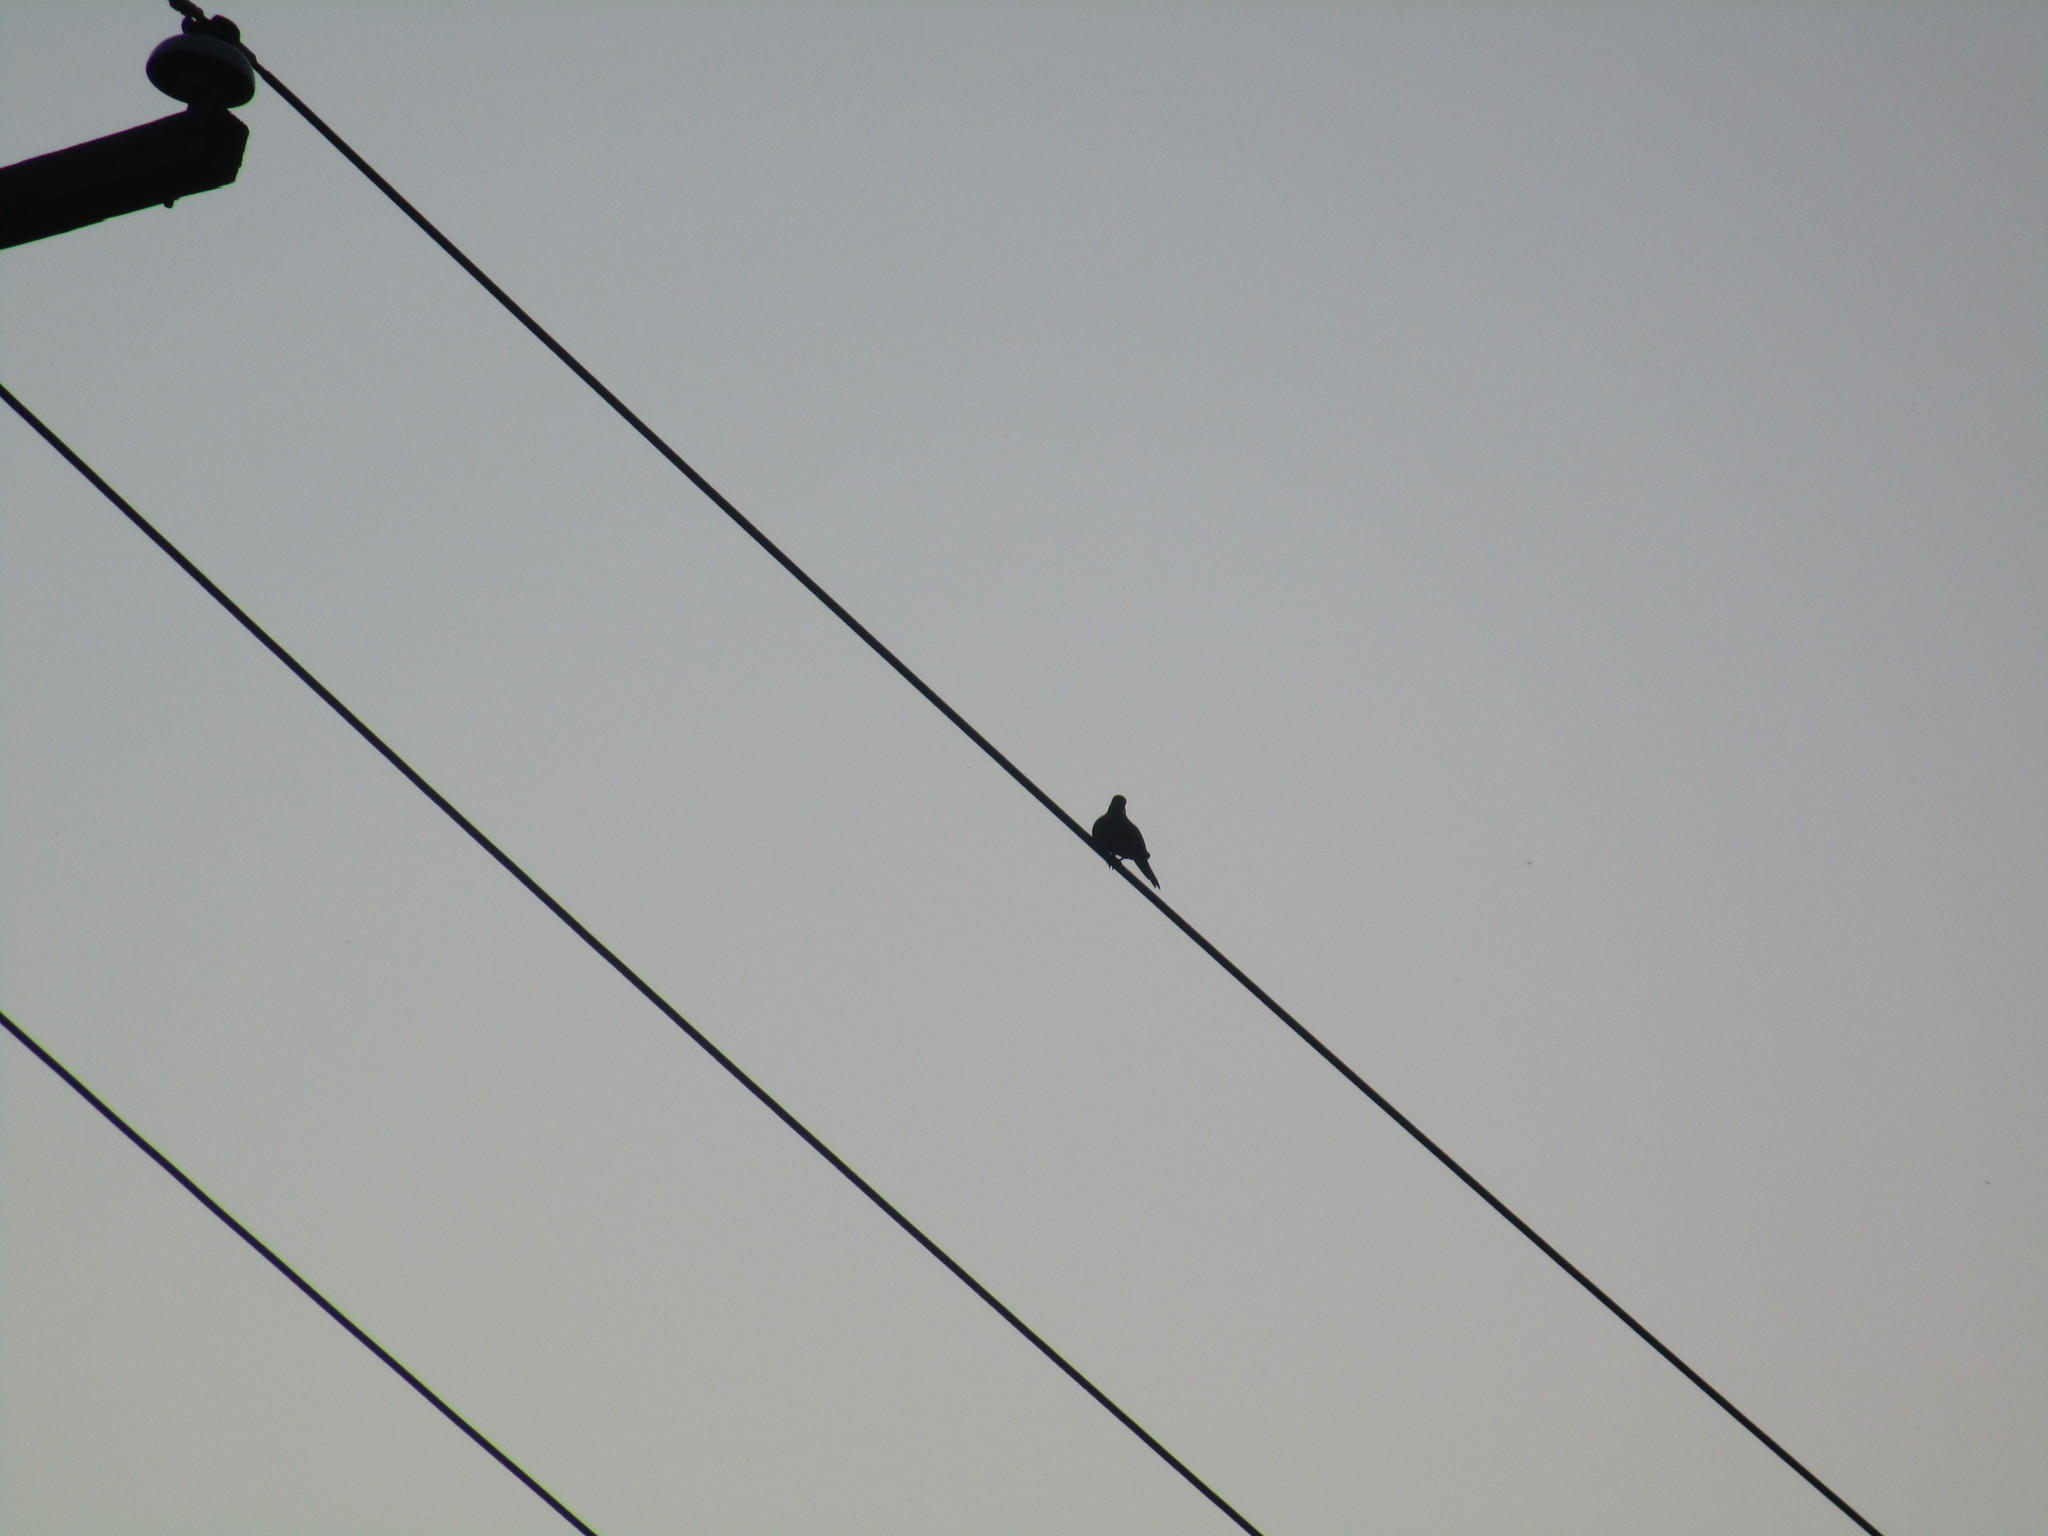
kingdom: Animalia
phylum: Chordata
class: Aves
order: Columbiformes
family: Columbidae
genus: Zenaida
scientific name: Zenaida macroura
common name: Mourning dove
